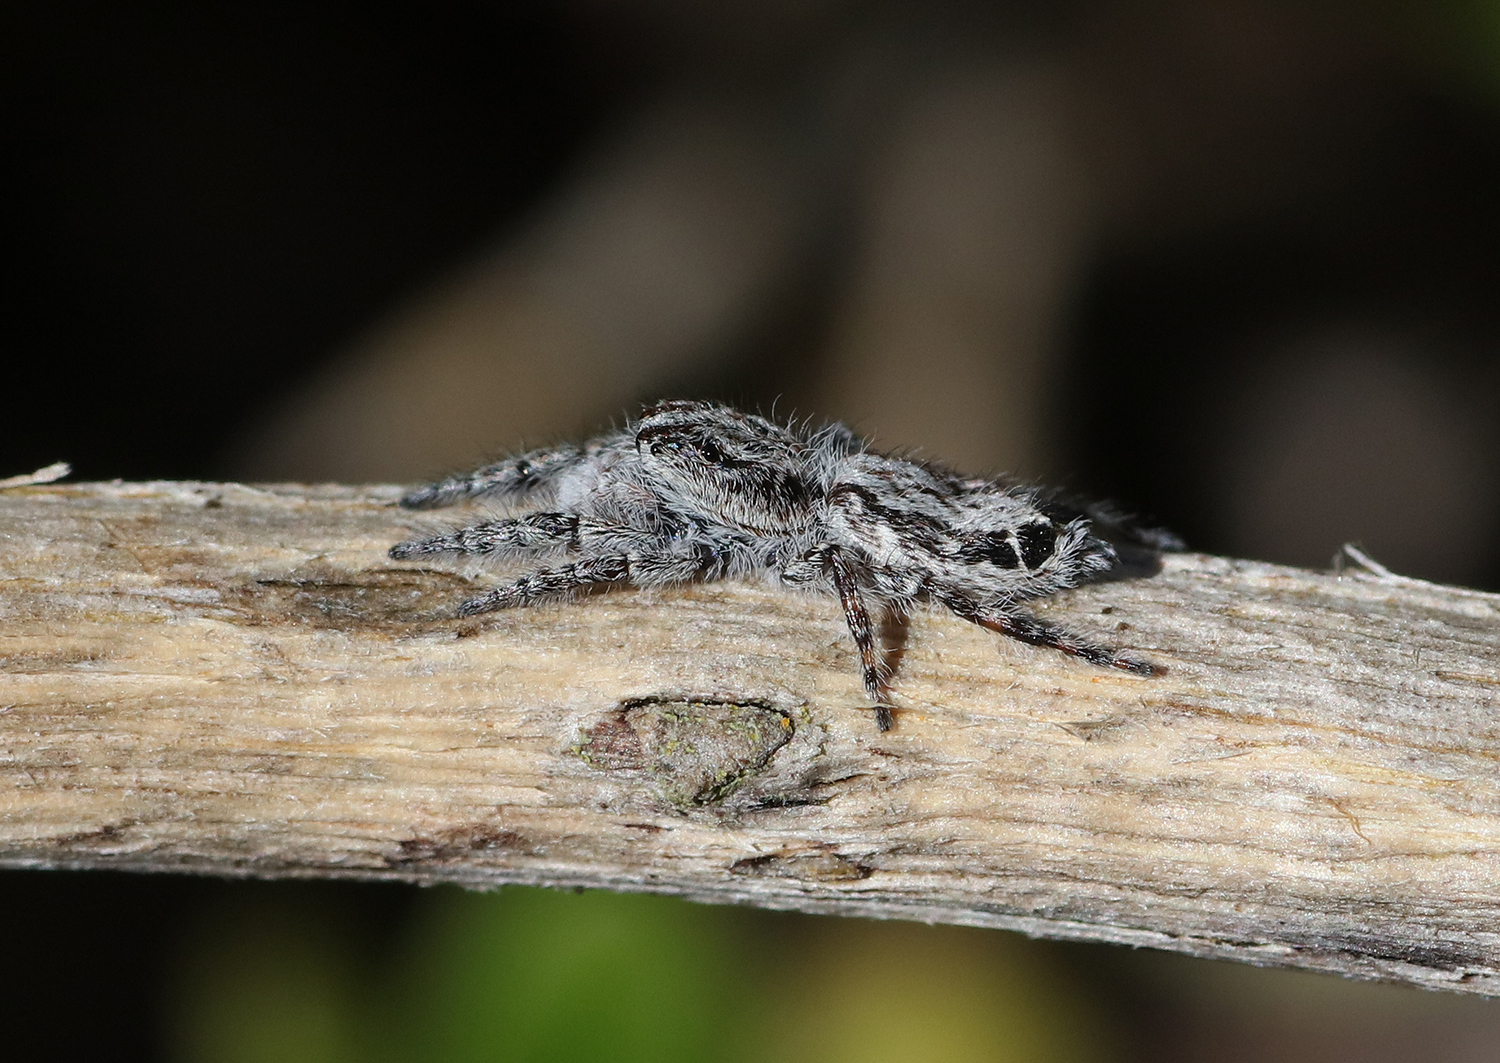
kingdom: Animalia
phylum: Arthropoda
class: Arachnida
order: Araneae
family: Salticidae
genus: Abracadabrella
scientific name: Abracadabrella elegans
